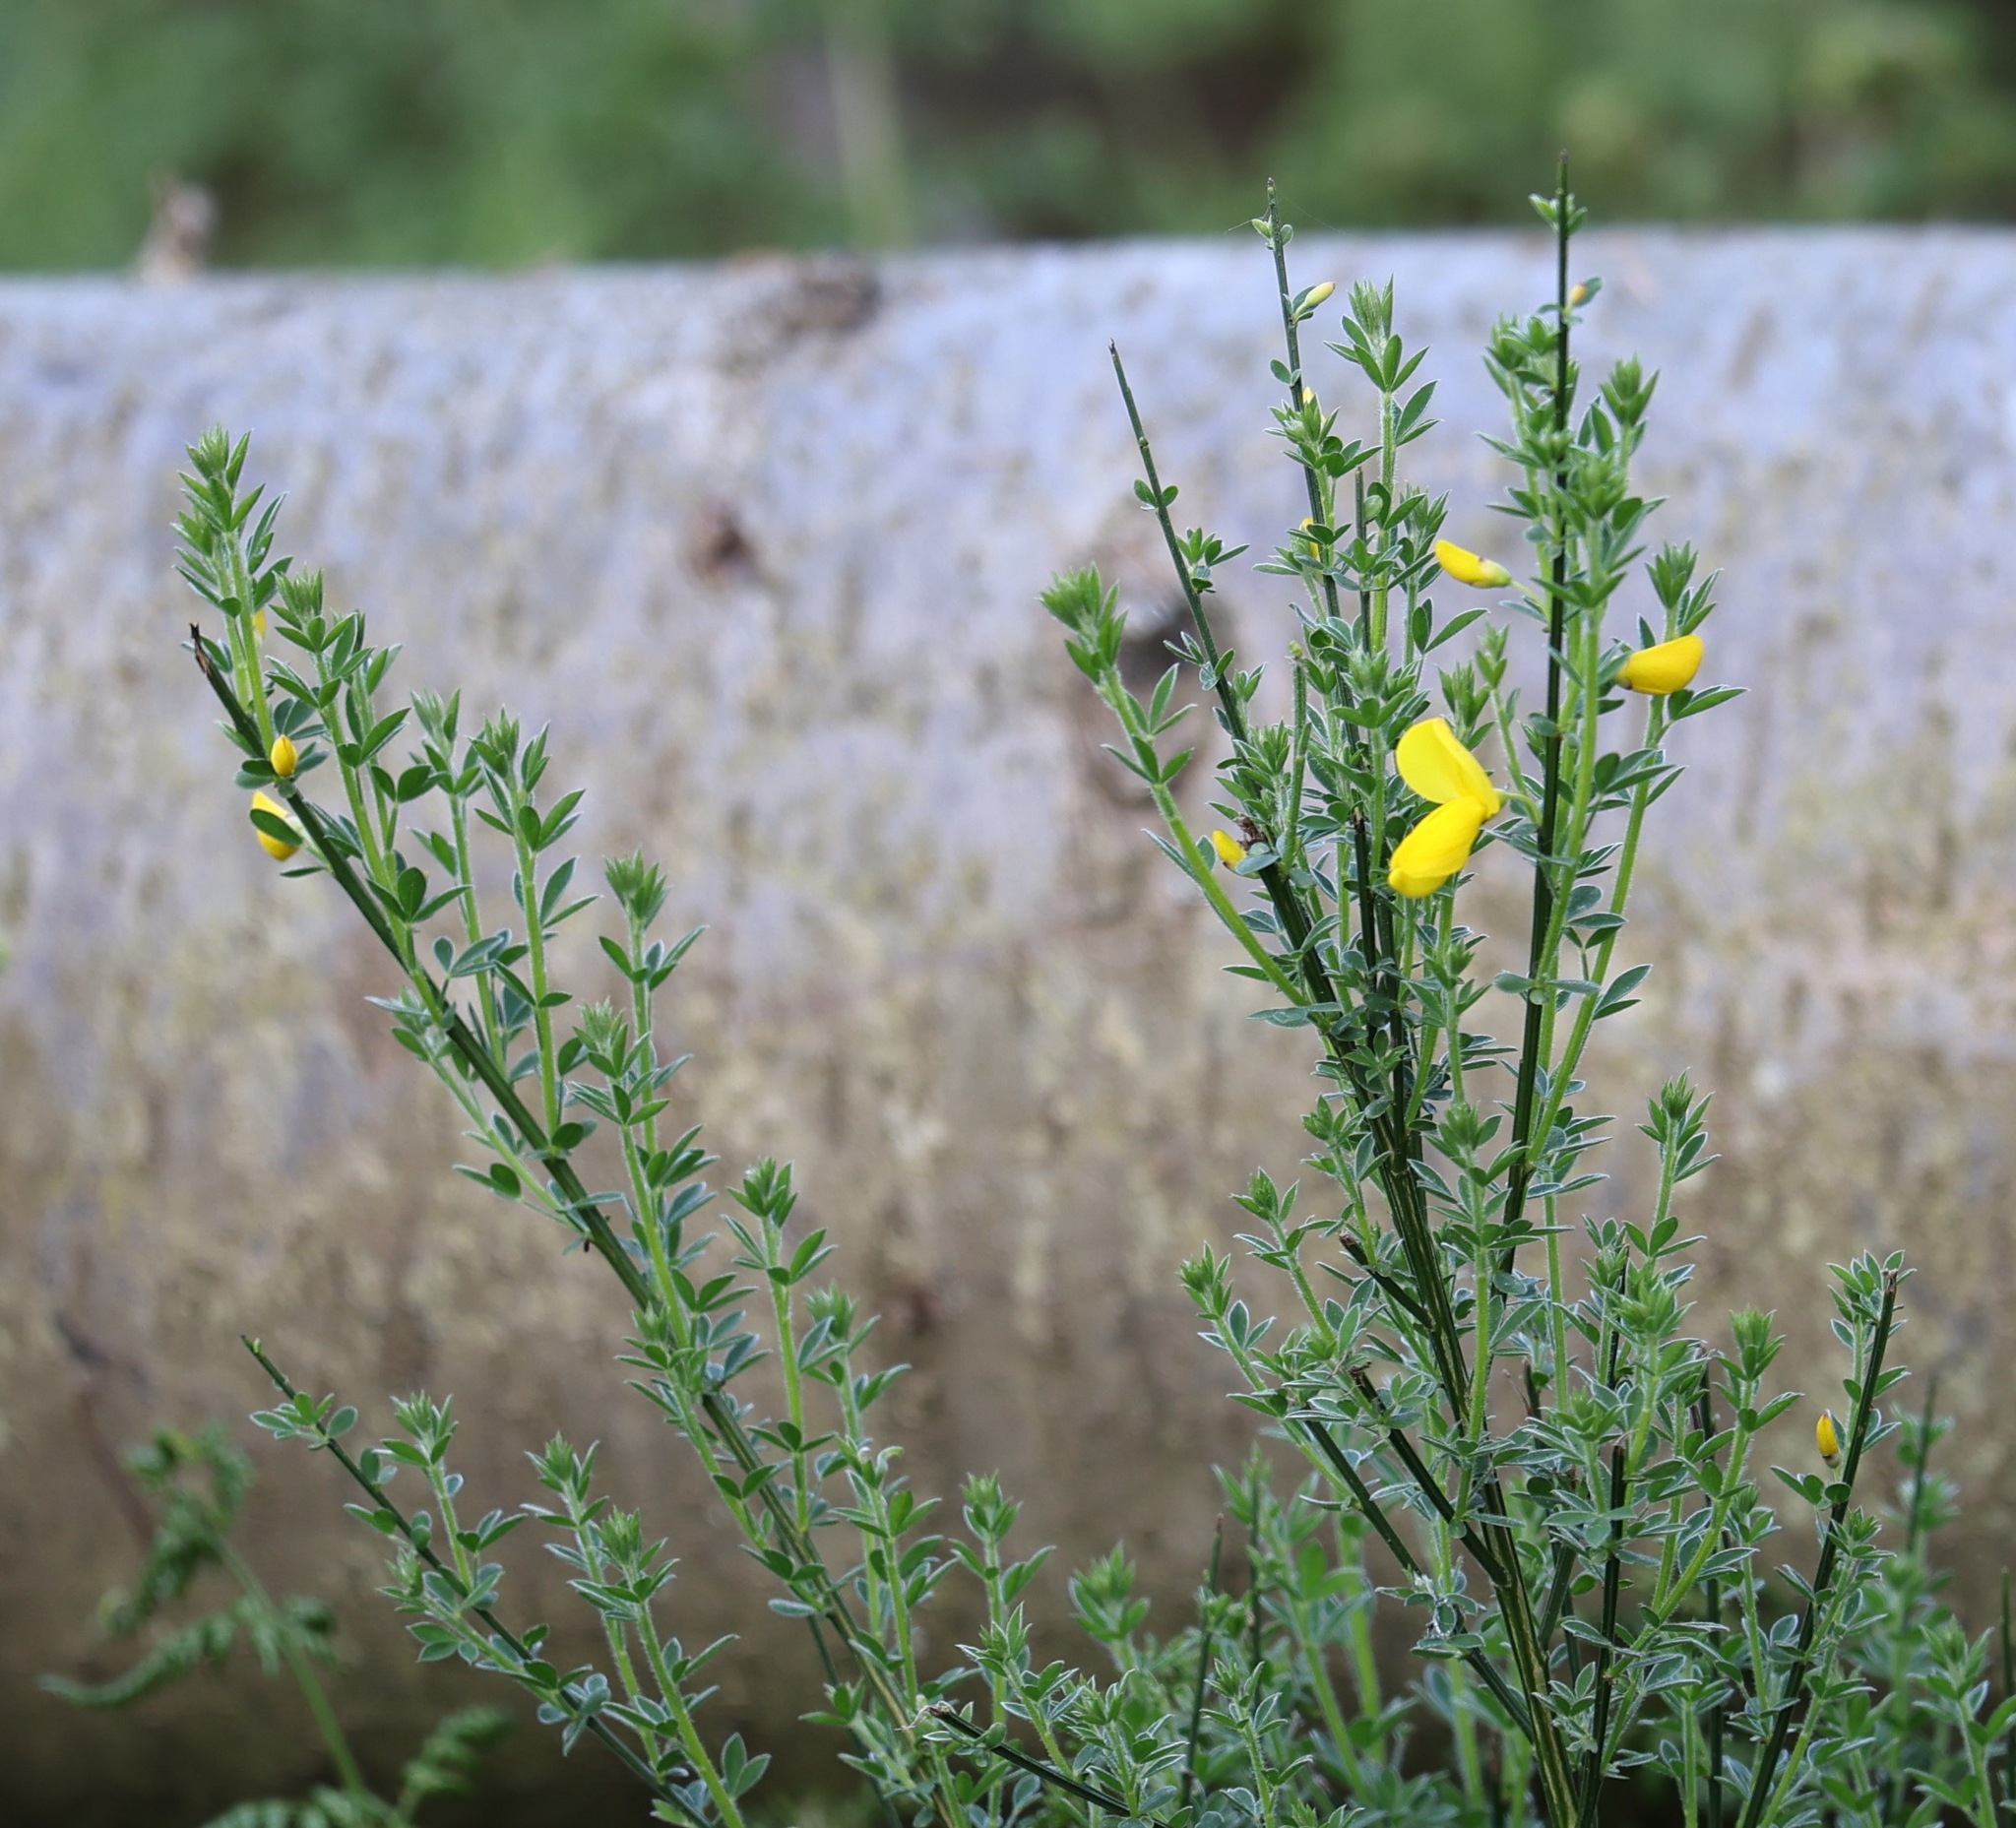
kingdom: Plantae
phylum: Tracheophyta
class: Magnoliopsida
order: Fabales
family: Fabaceae
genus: Cytisus
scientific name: Cytisus scoparius
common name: Scotch broom
